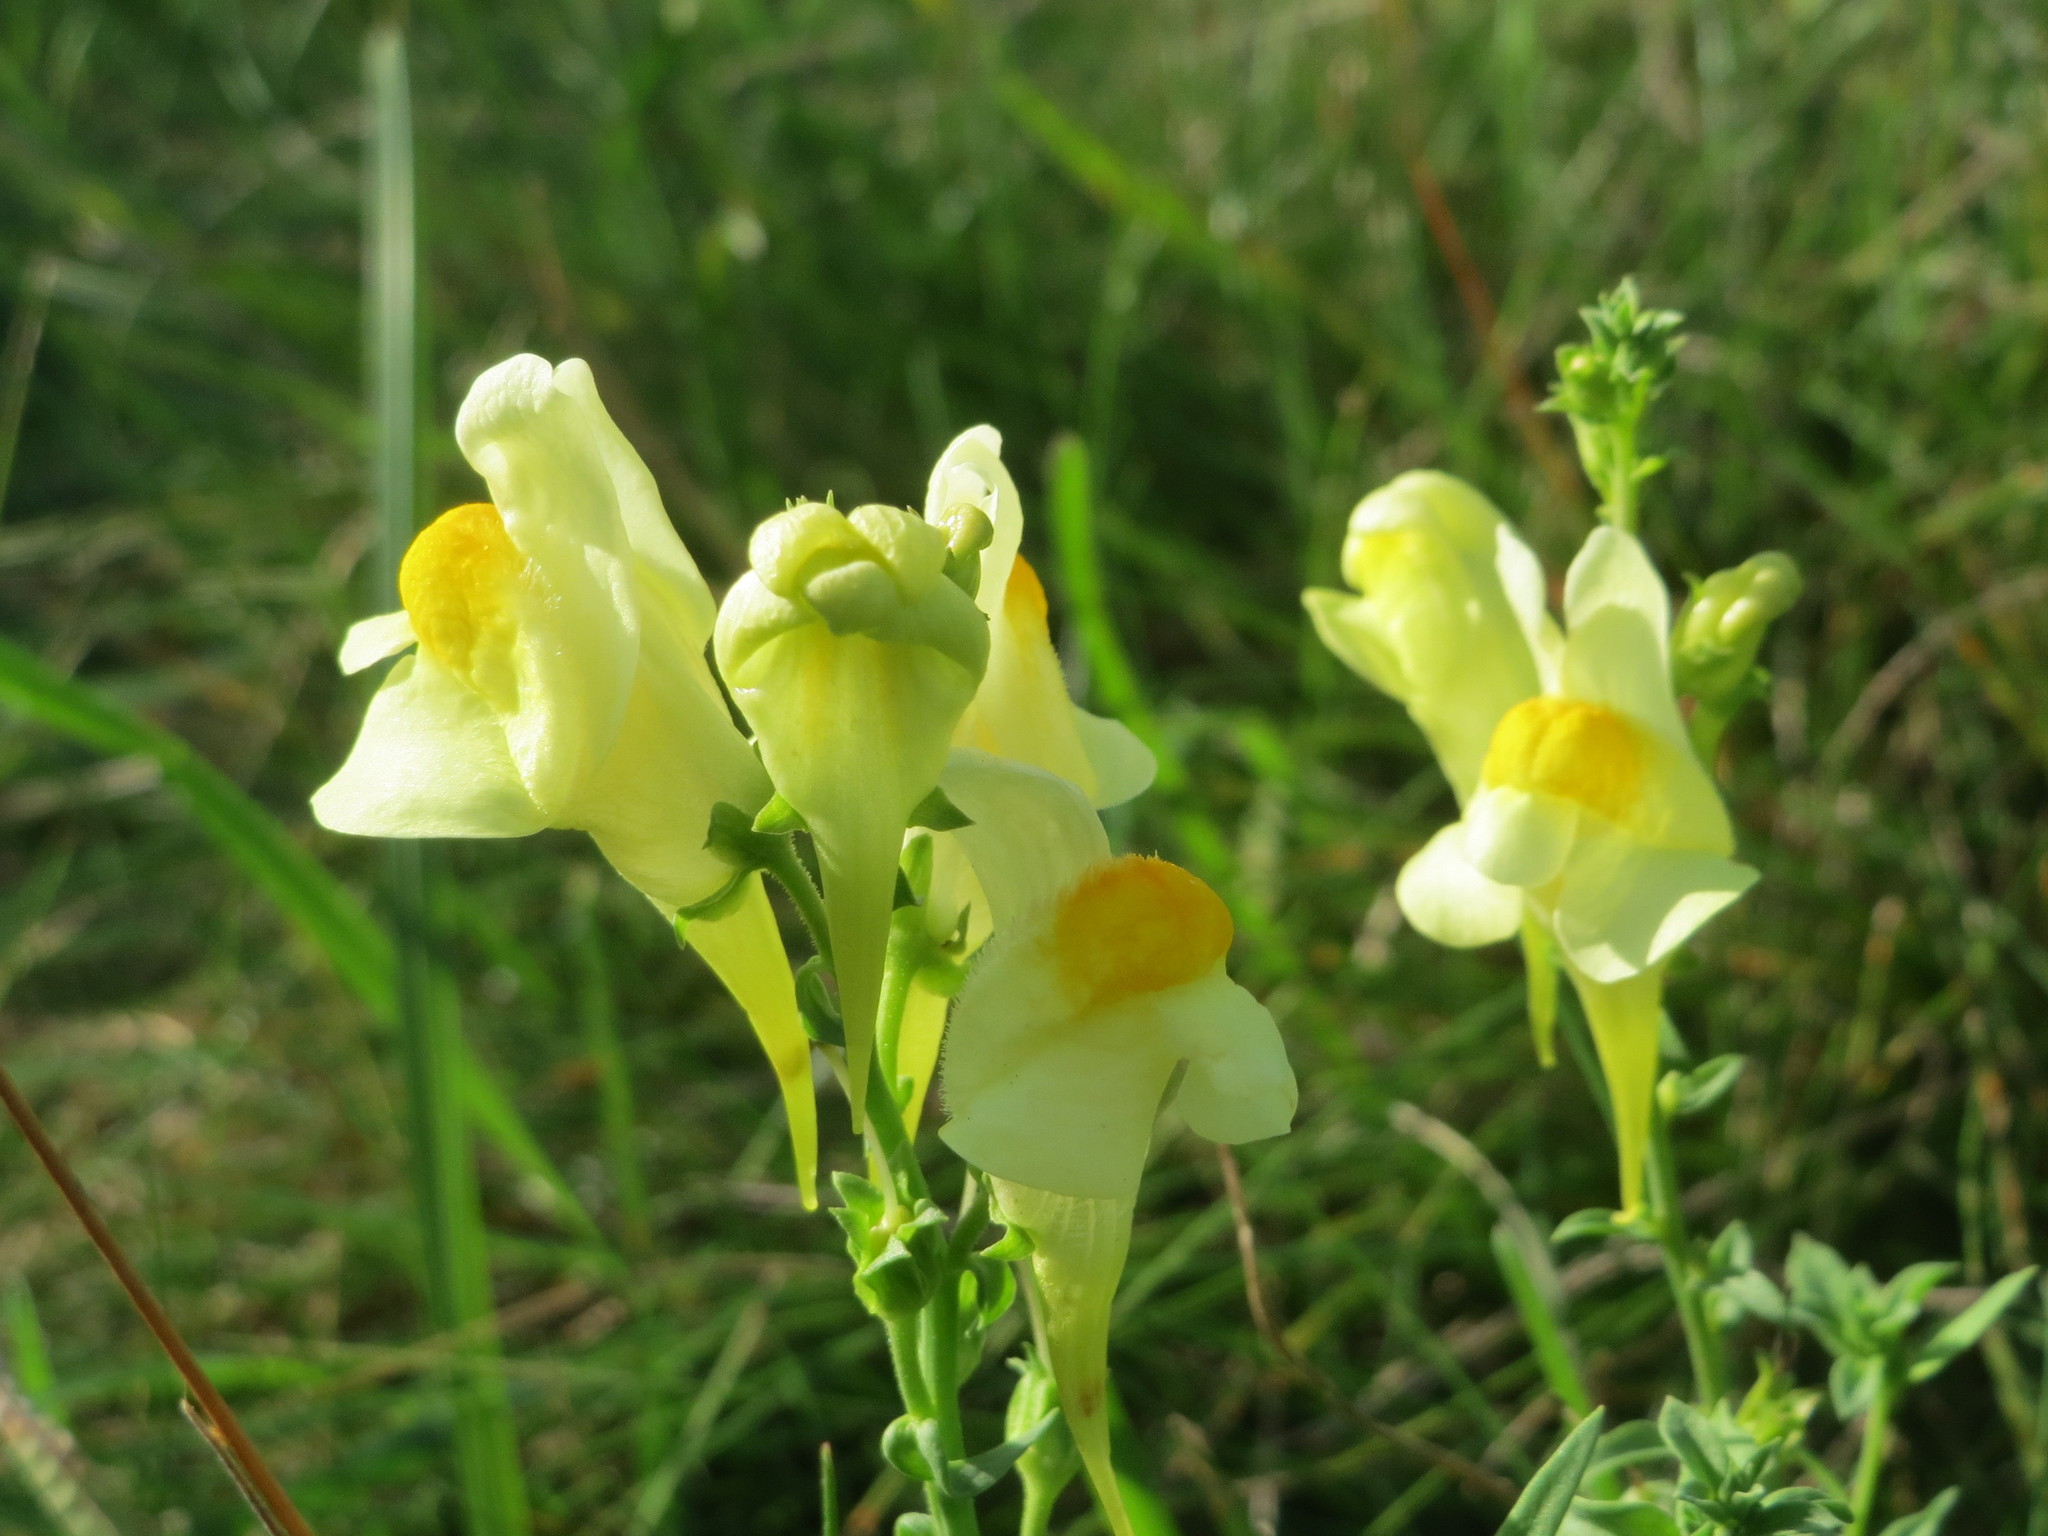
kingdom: Plantae
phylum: Tracheophyta
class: Magnoliopsida
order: Lamiales
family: Plantaginaceae
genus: Linaria
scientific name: Linaria vulgaris
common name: Butter and eggs
